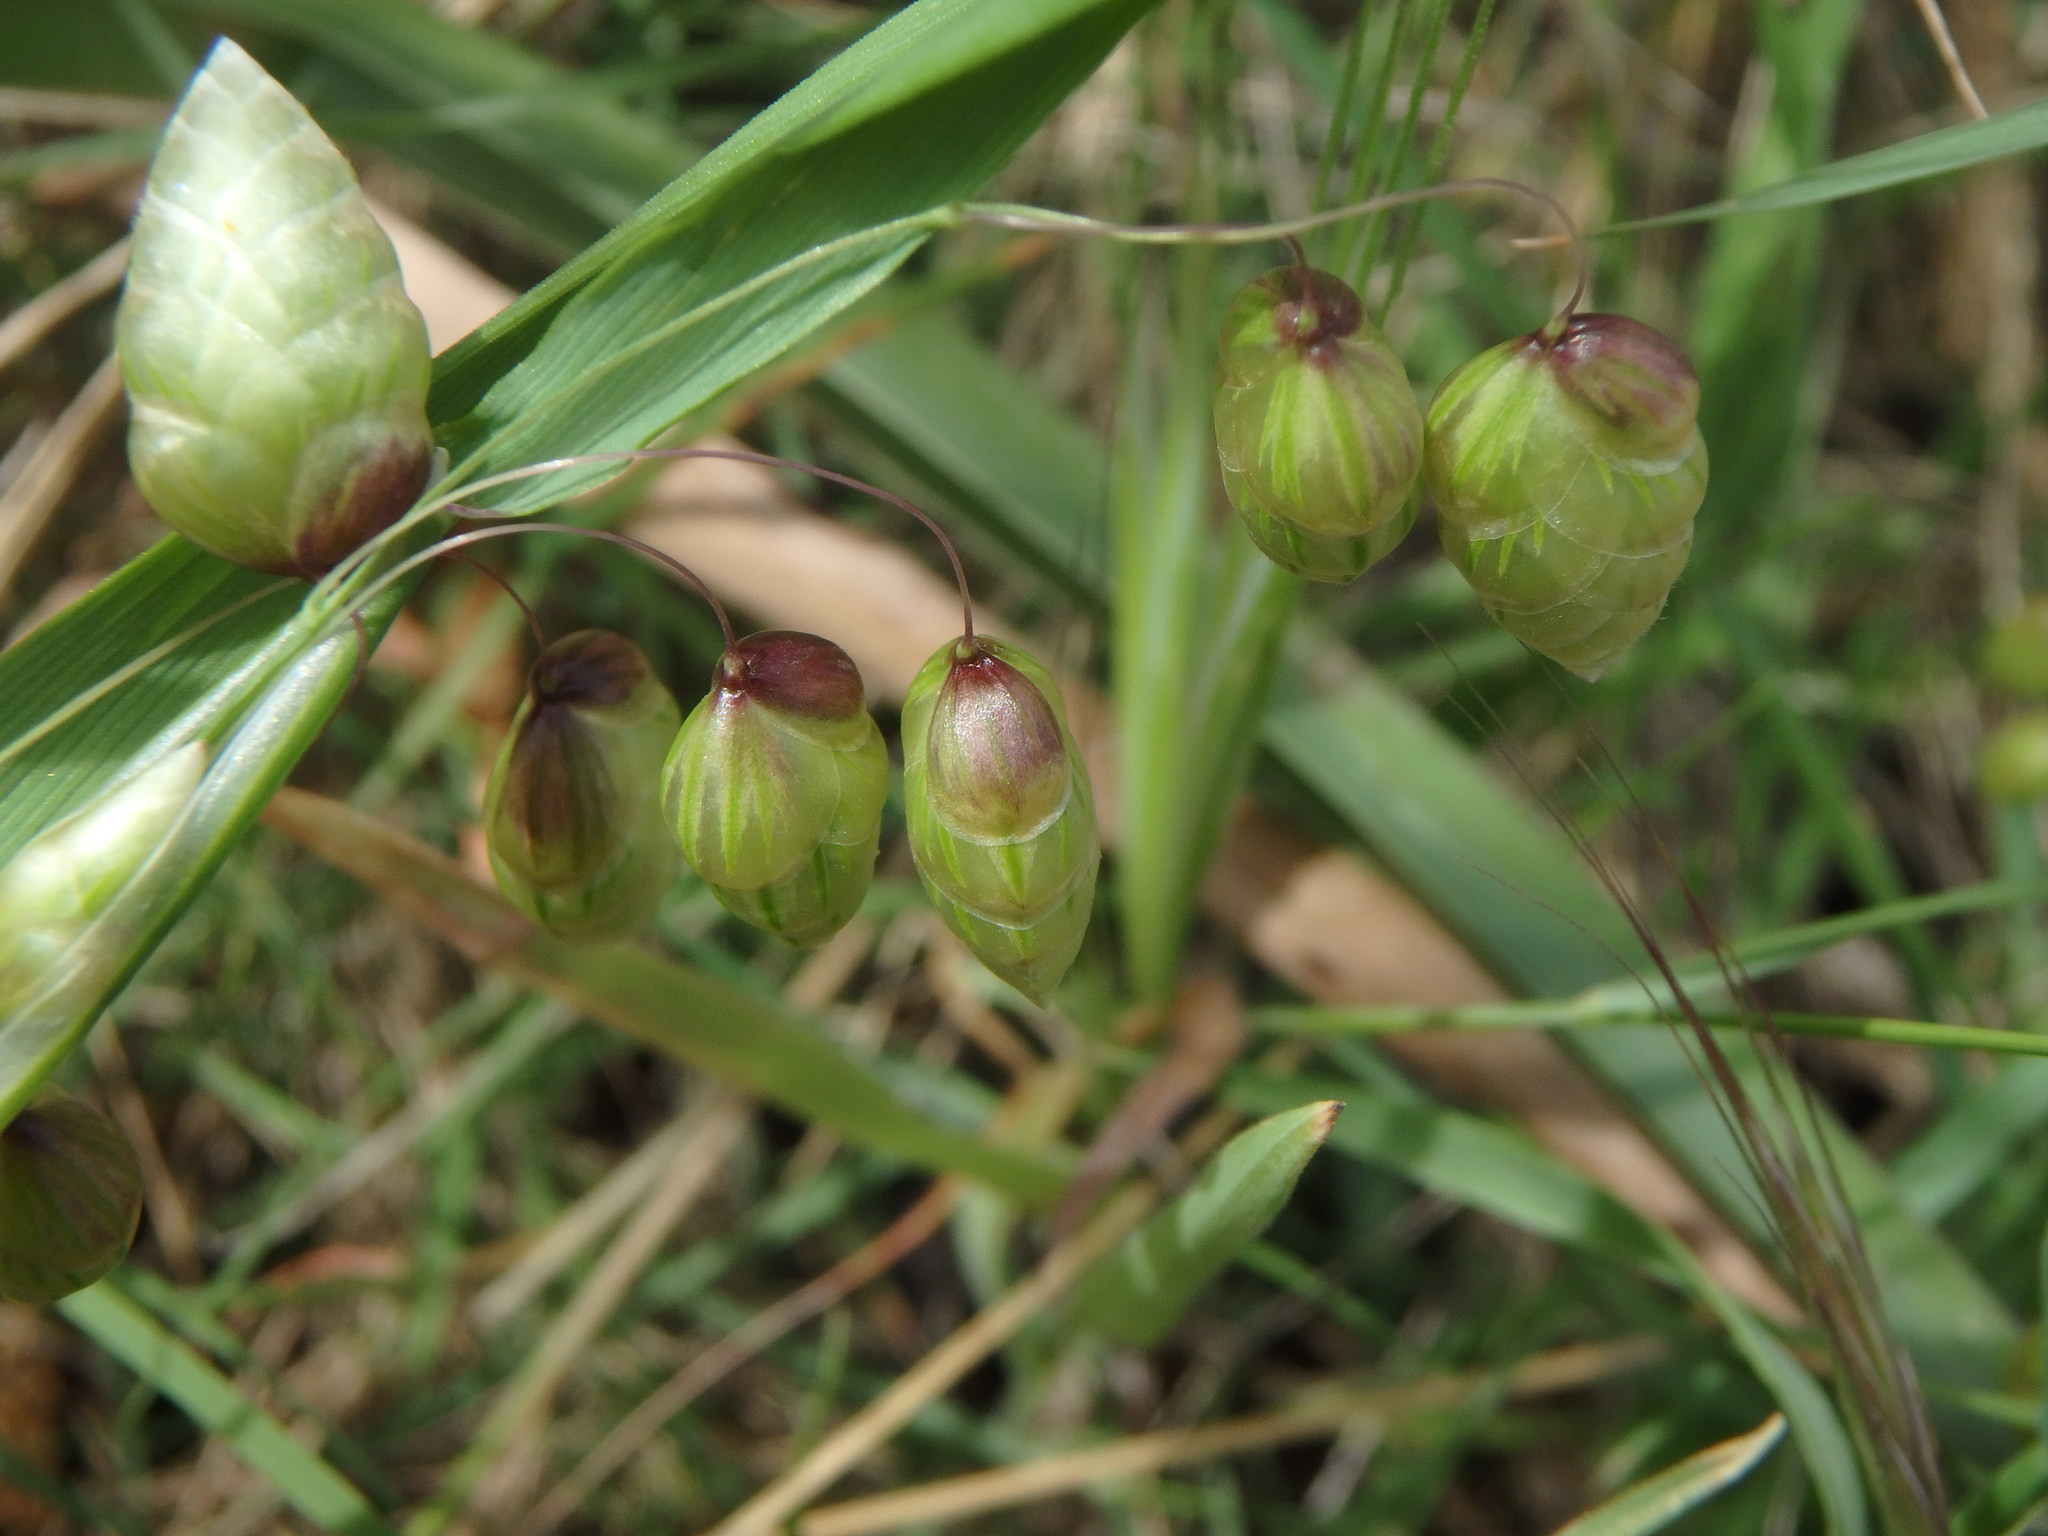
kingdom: Plantae
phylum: Tracheophyta
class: Liliopsida
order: Poales
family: Poaceae
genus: Briza
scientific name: Briza maxima
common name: Big quakinggrass
